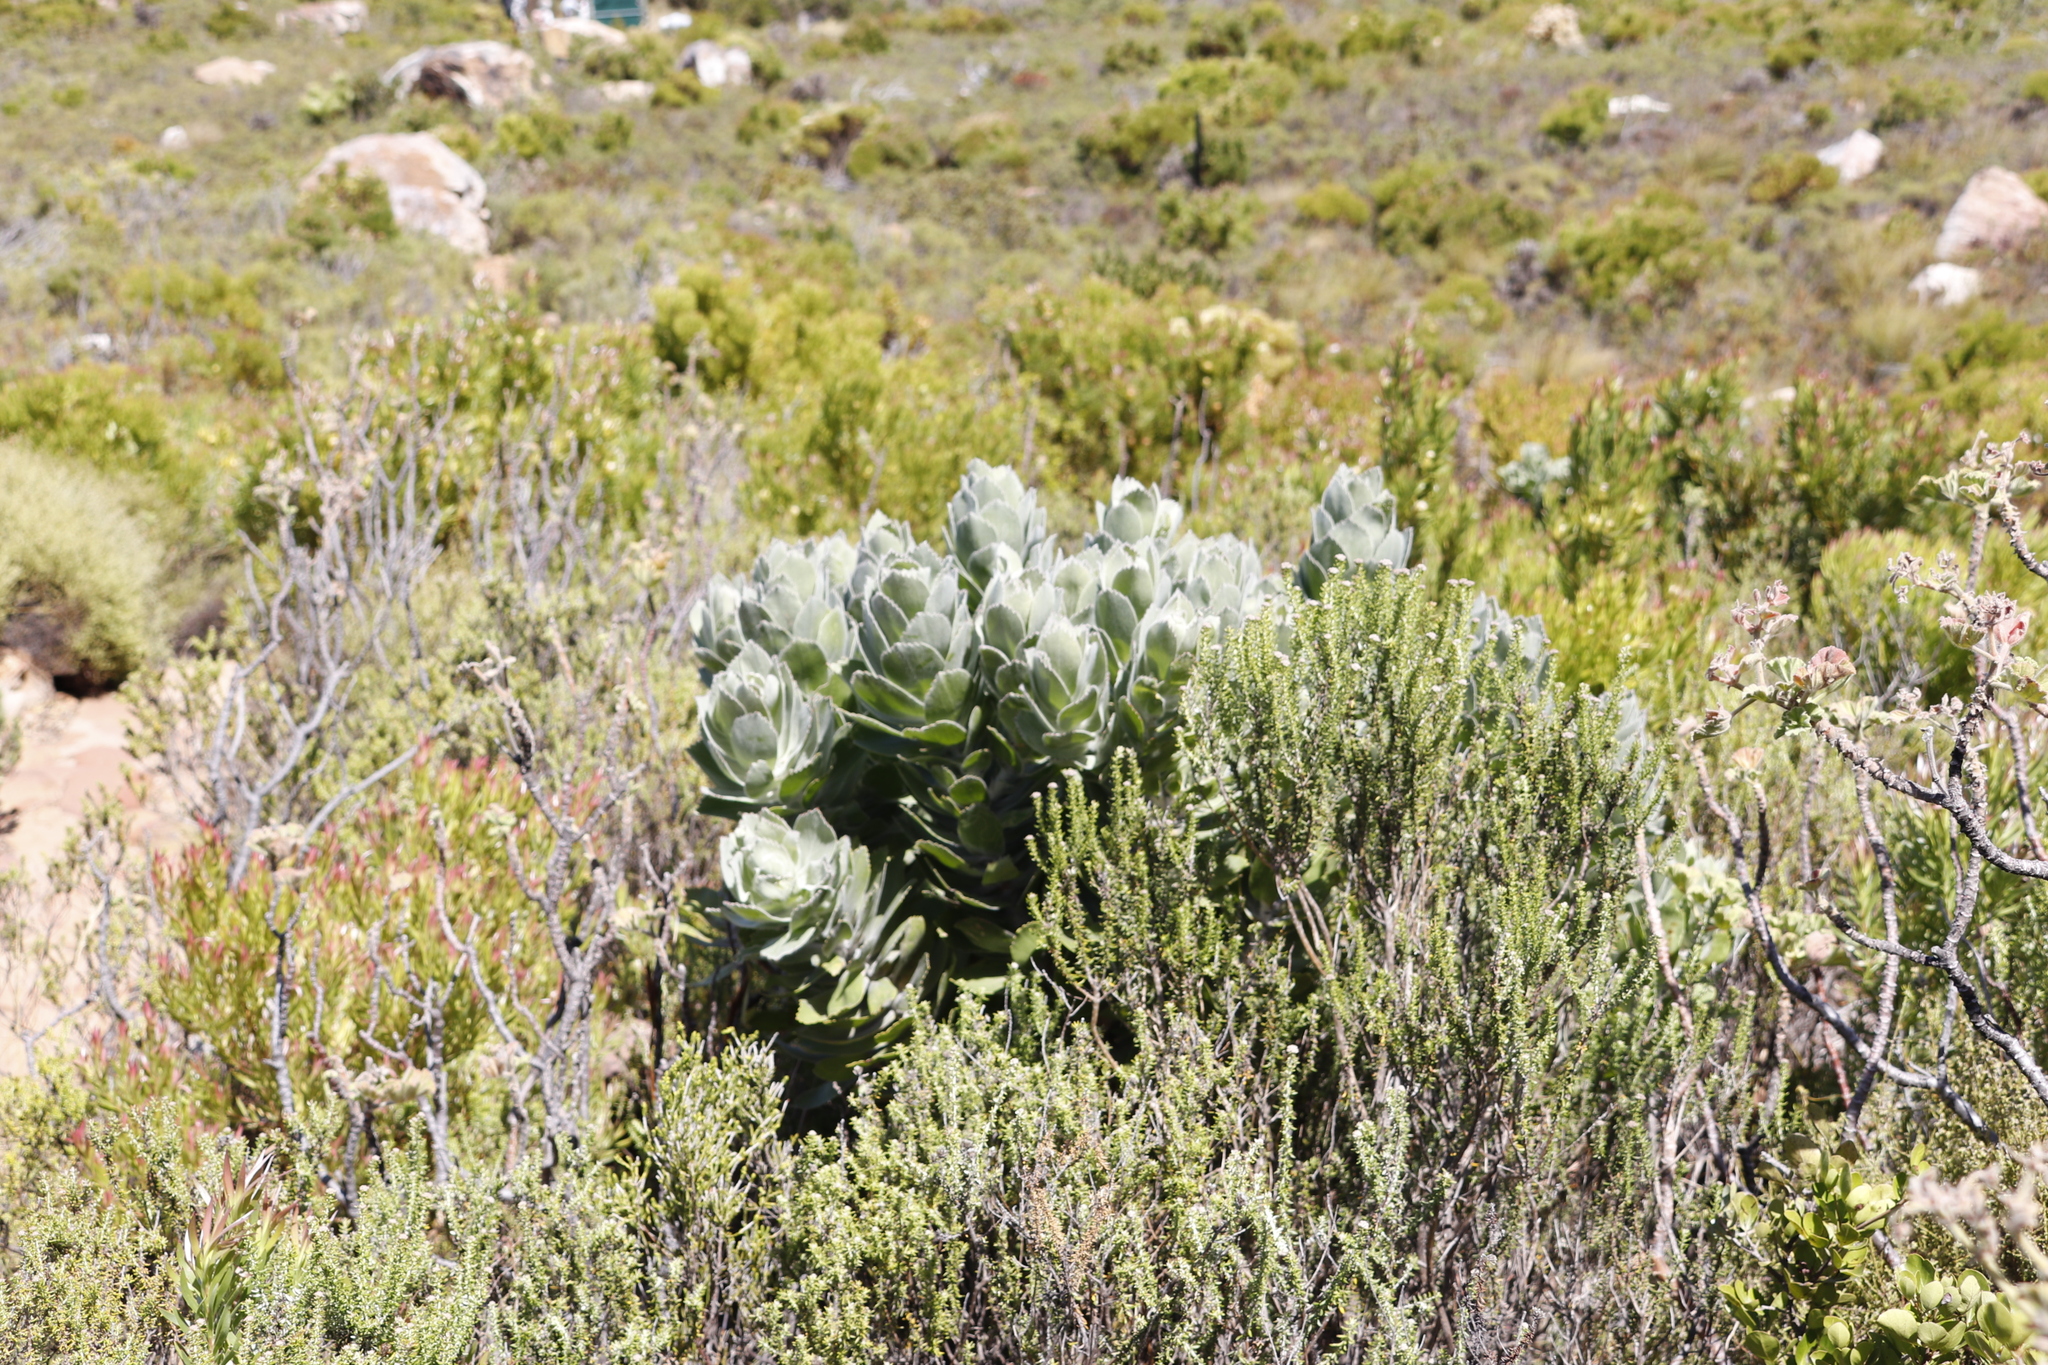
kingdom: Plantae
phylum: Tracheophyta
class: Magnoliopsida
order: Proteales
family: Proteaceae
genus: Leucospermum
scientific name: Leucospermum conocarpodendron
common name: Tree pincushion
